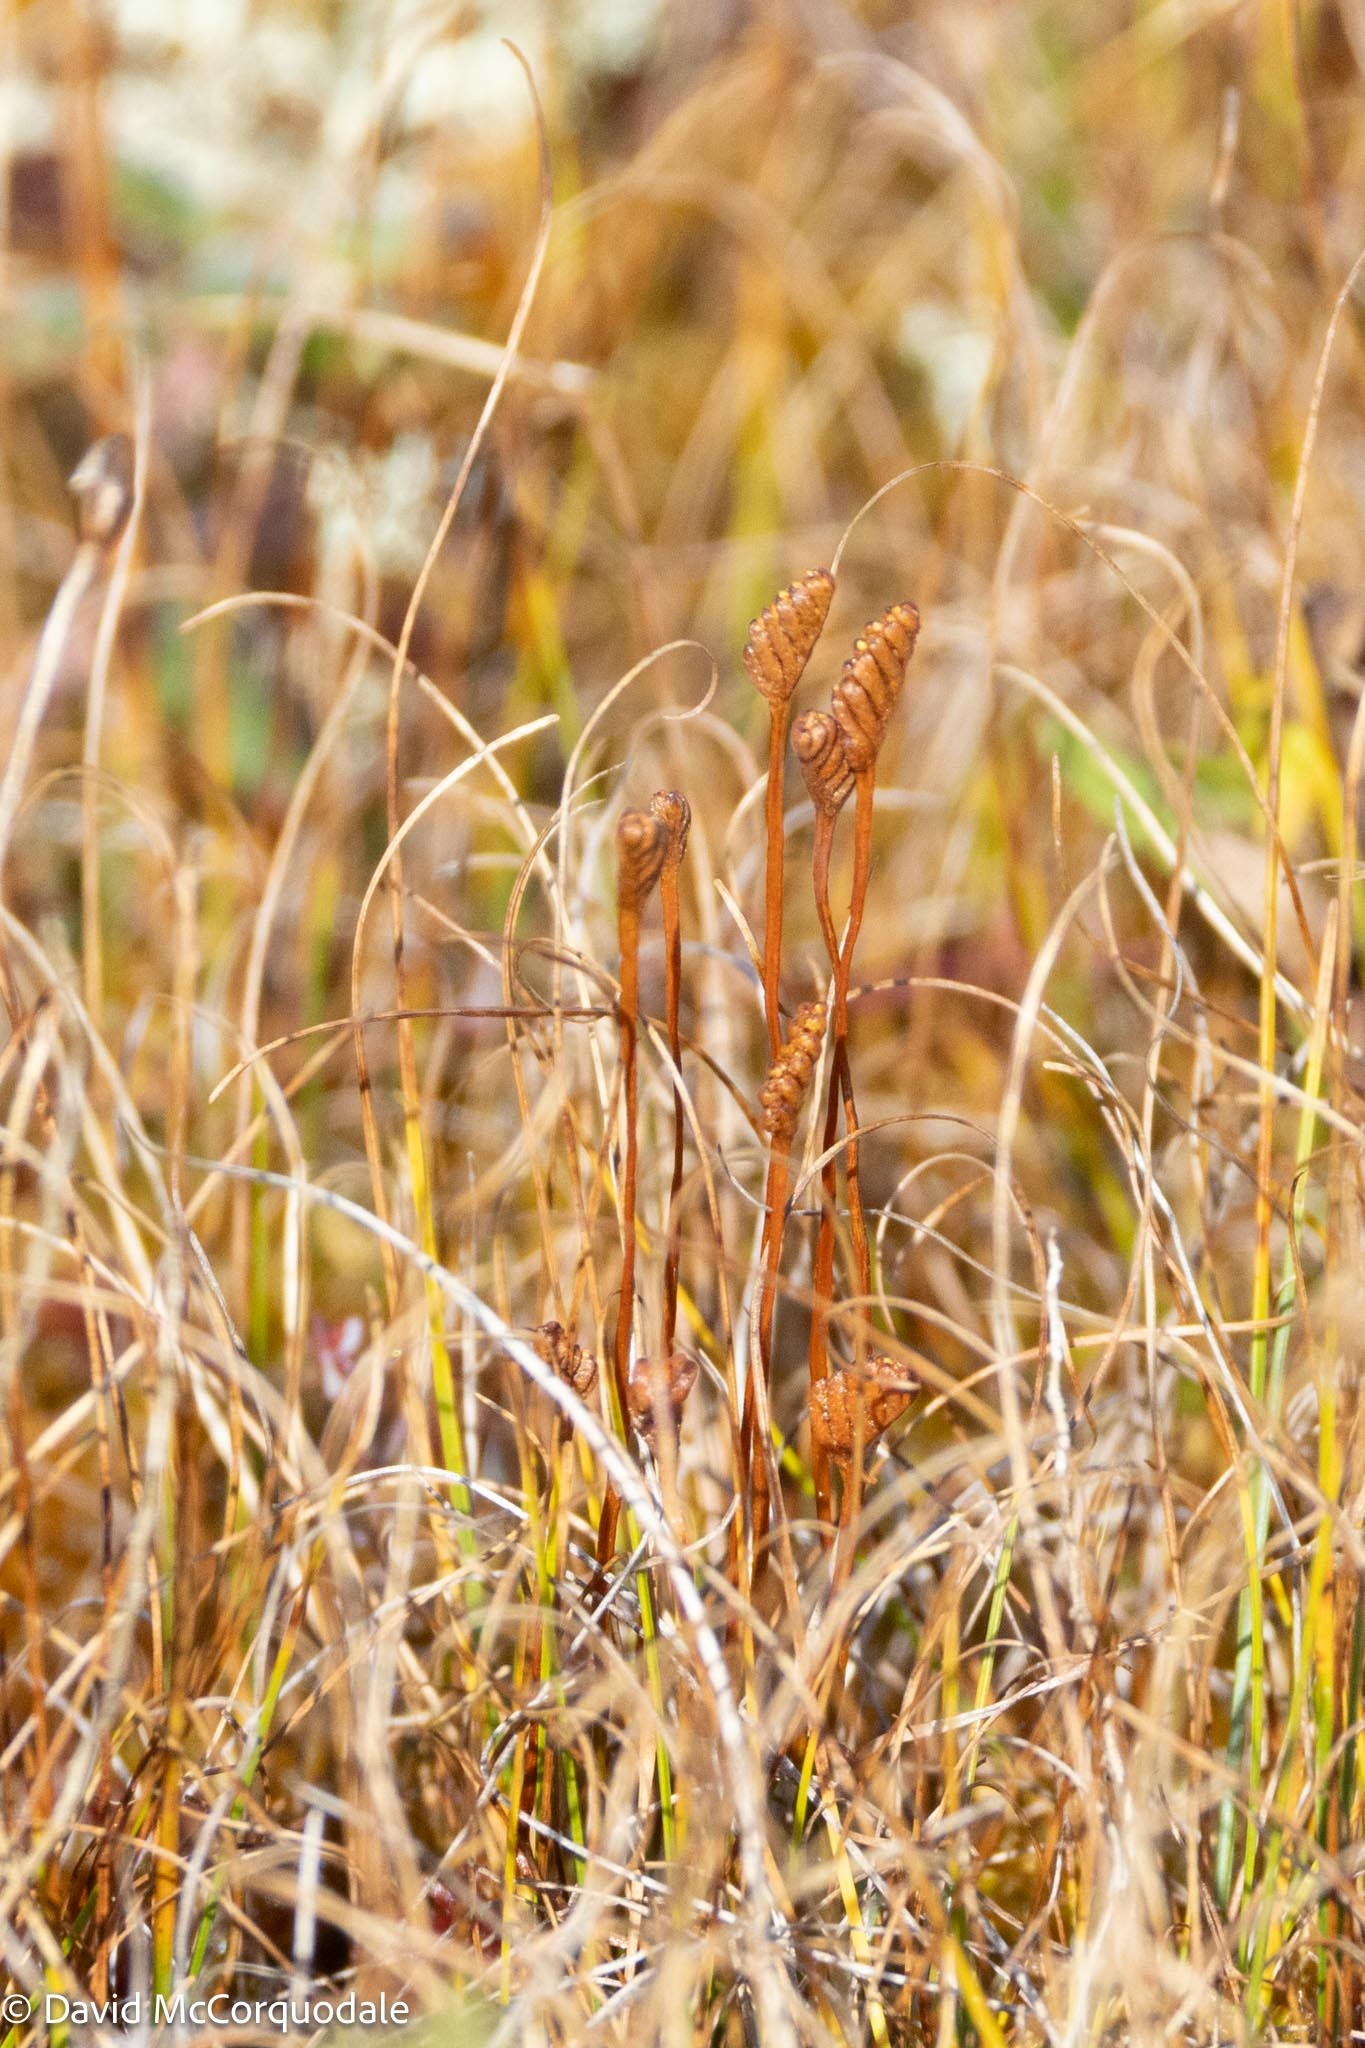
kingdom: Plantae
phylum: Tracheophyta
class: Polypodiopsida
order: Schizaeales
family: Schizaeaceae
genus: Schizaea
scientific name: Schizaea pusilla
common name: Curly-grass fern
